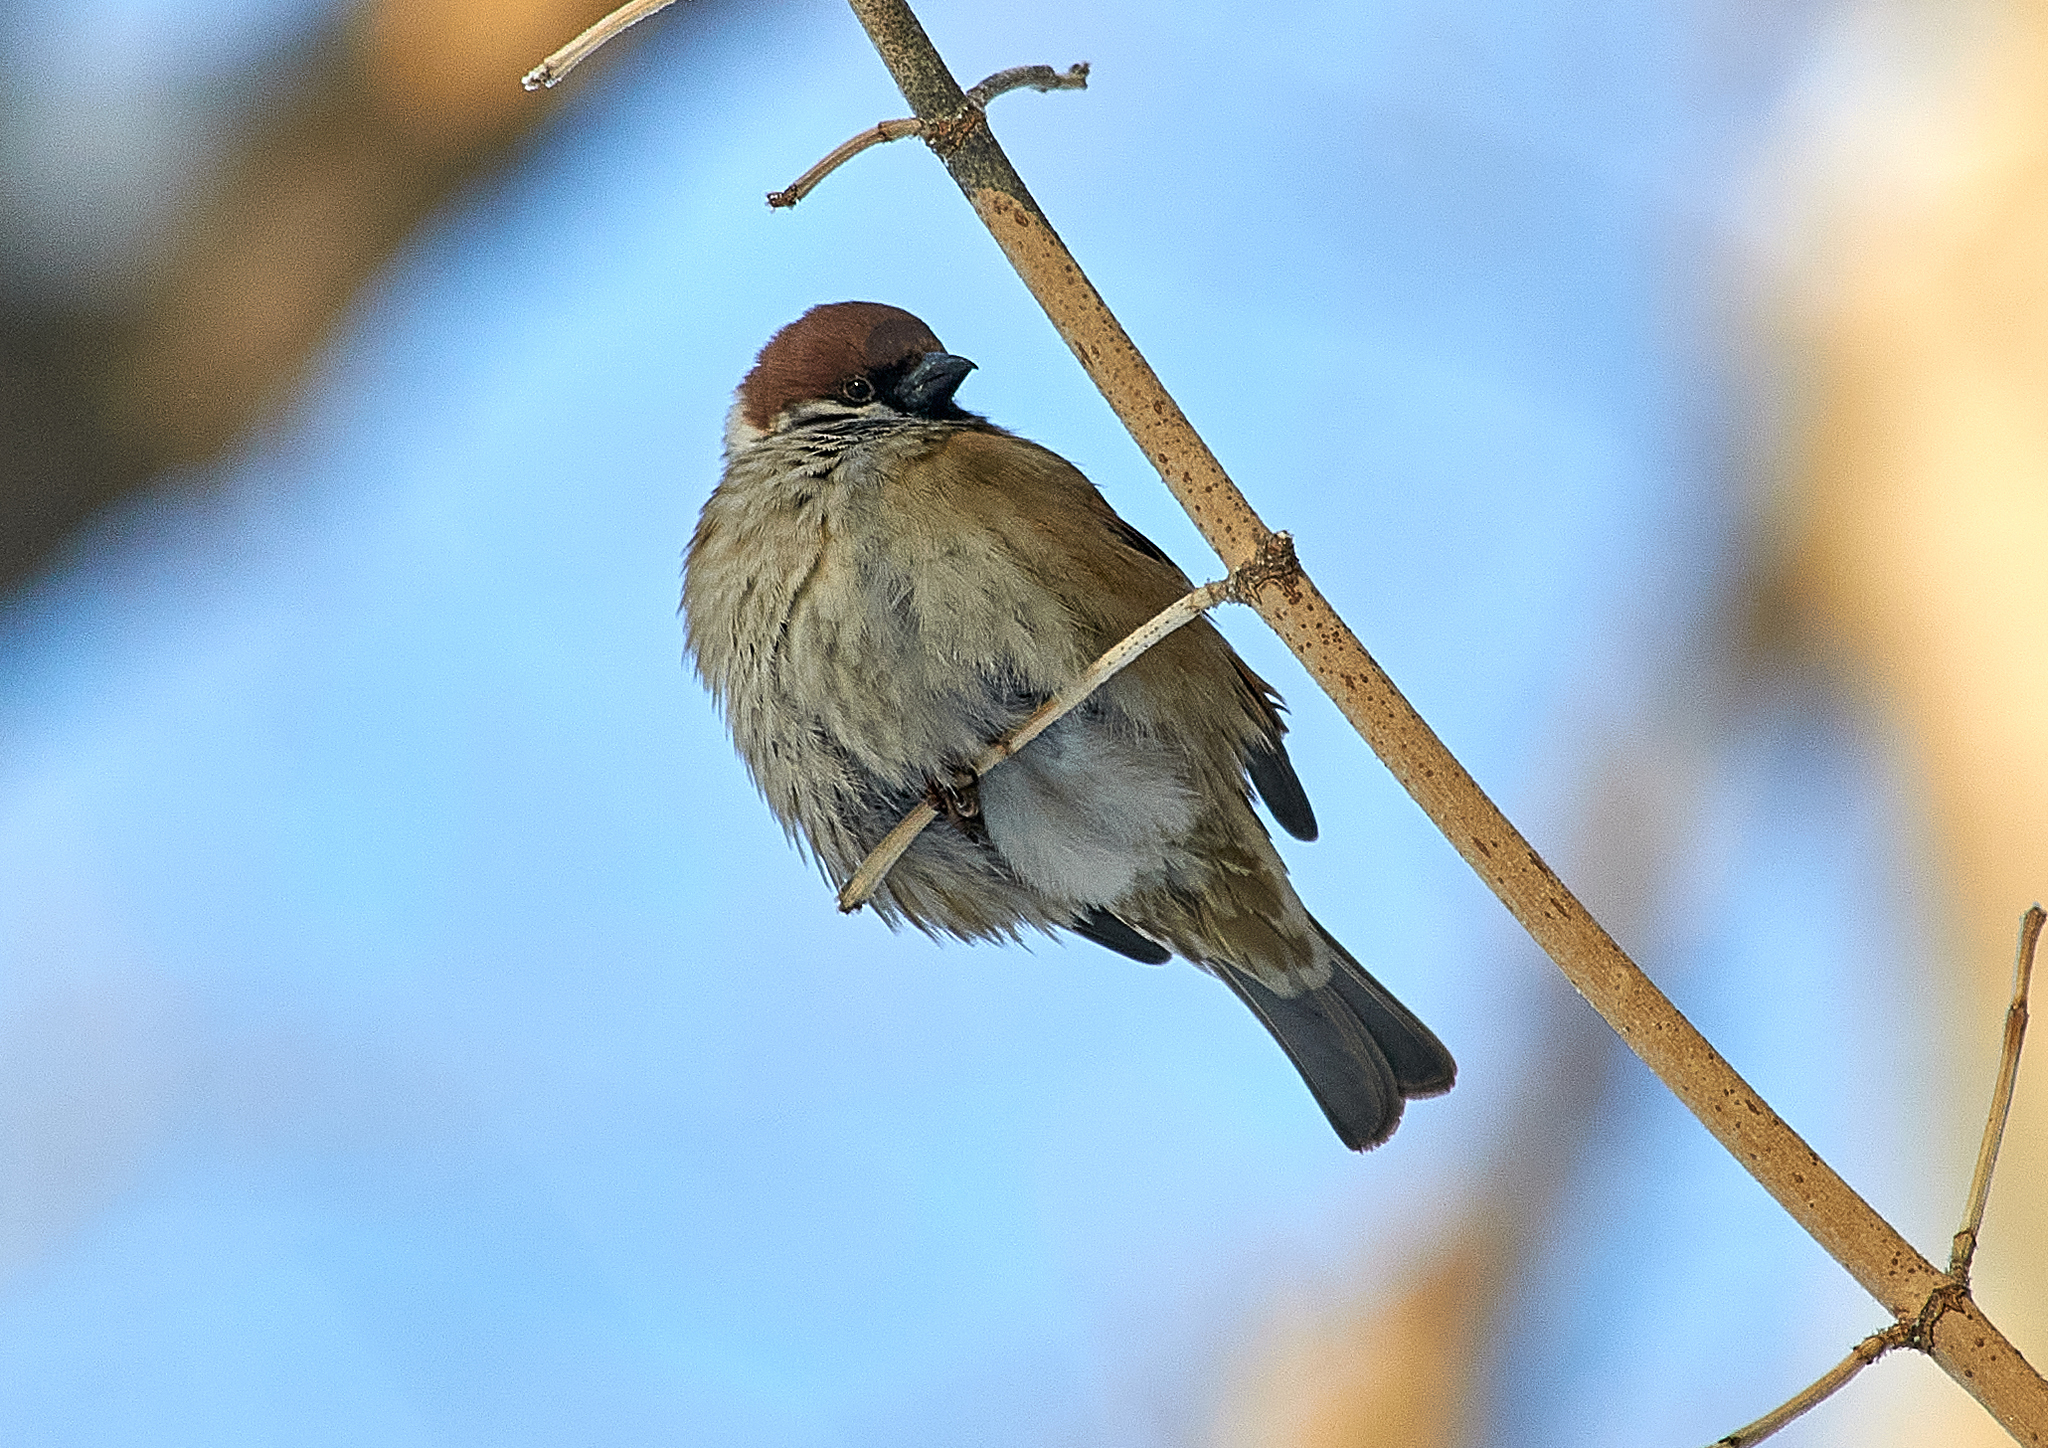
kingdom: Animalia
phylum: Chordata
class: Aves
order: Passeriformes
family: Passeridae
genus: Passer
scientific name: Passer montanus
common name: Eurasian tree sparrow
